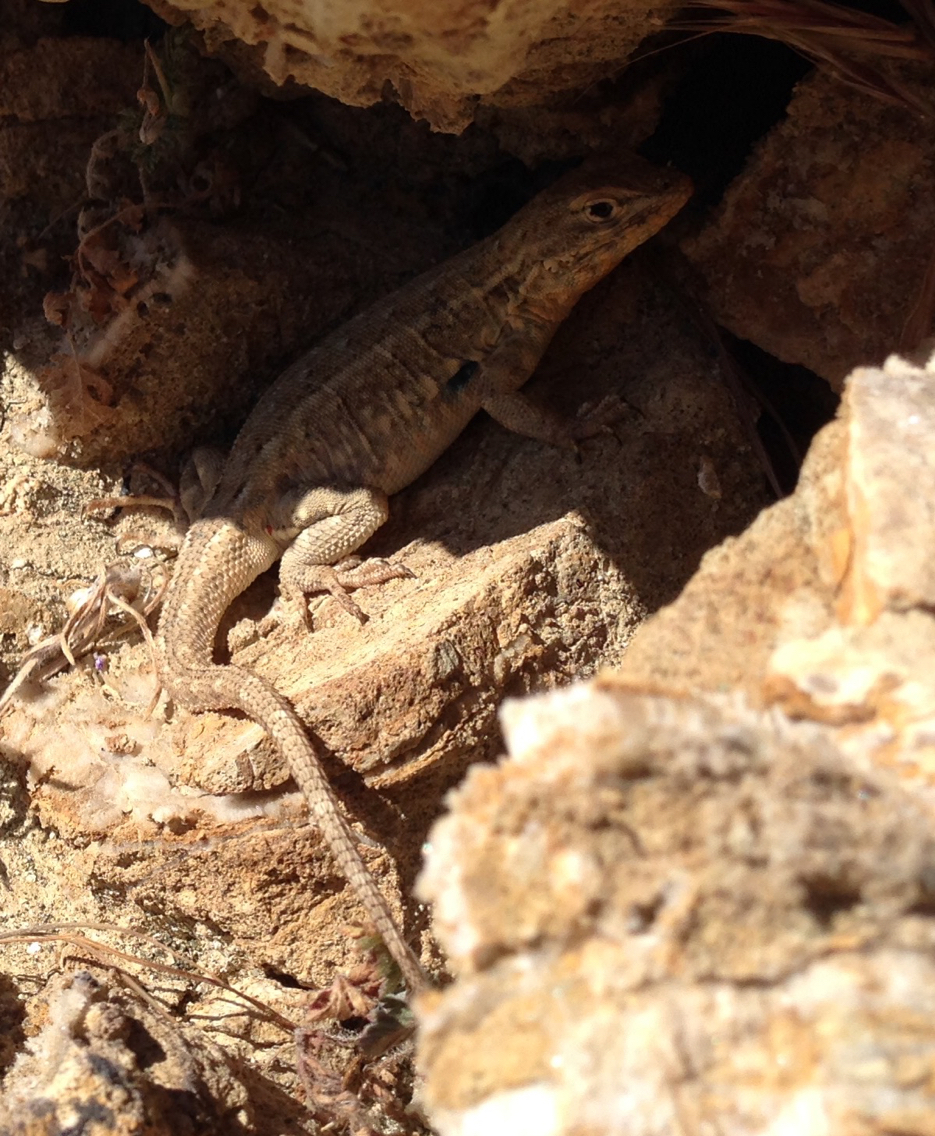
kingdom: Animalia
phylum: Chordata
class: Squamata
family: Phrynosomatidae
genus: Uta
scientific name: Uta stansburiana
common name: Side-blotched lizard
